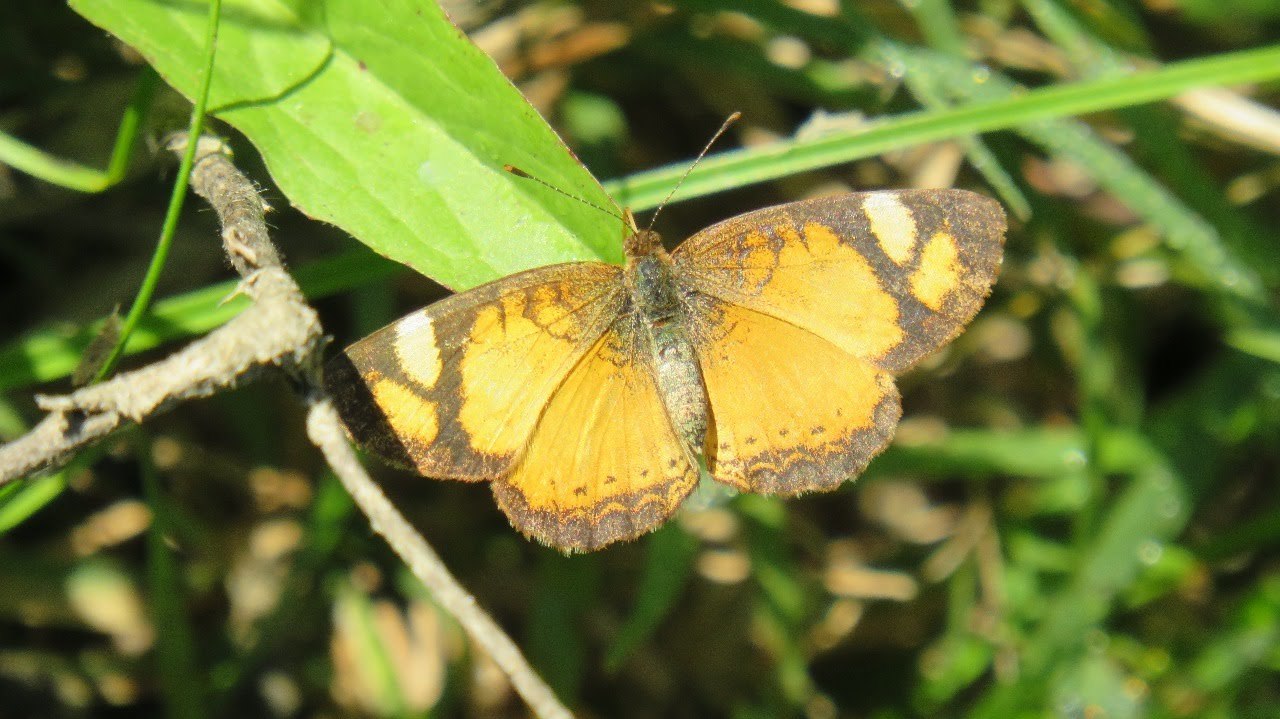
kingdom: Animalia
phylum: Arthropoda
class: Insecta
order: Lepidoptera
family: Nymphalidae
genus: Tegosa
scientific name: Tegosa claudina
